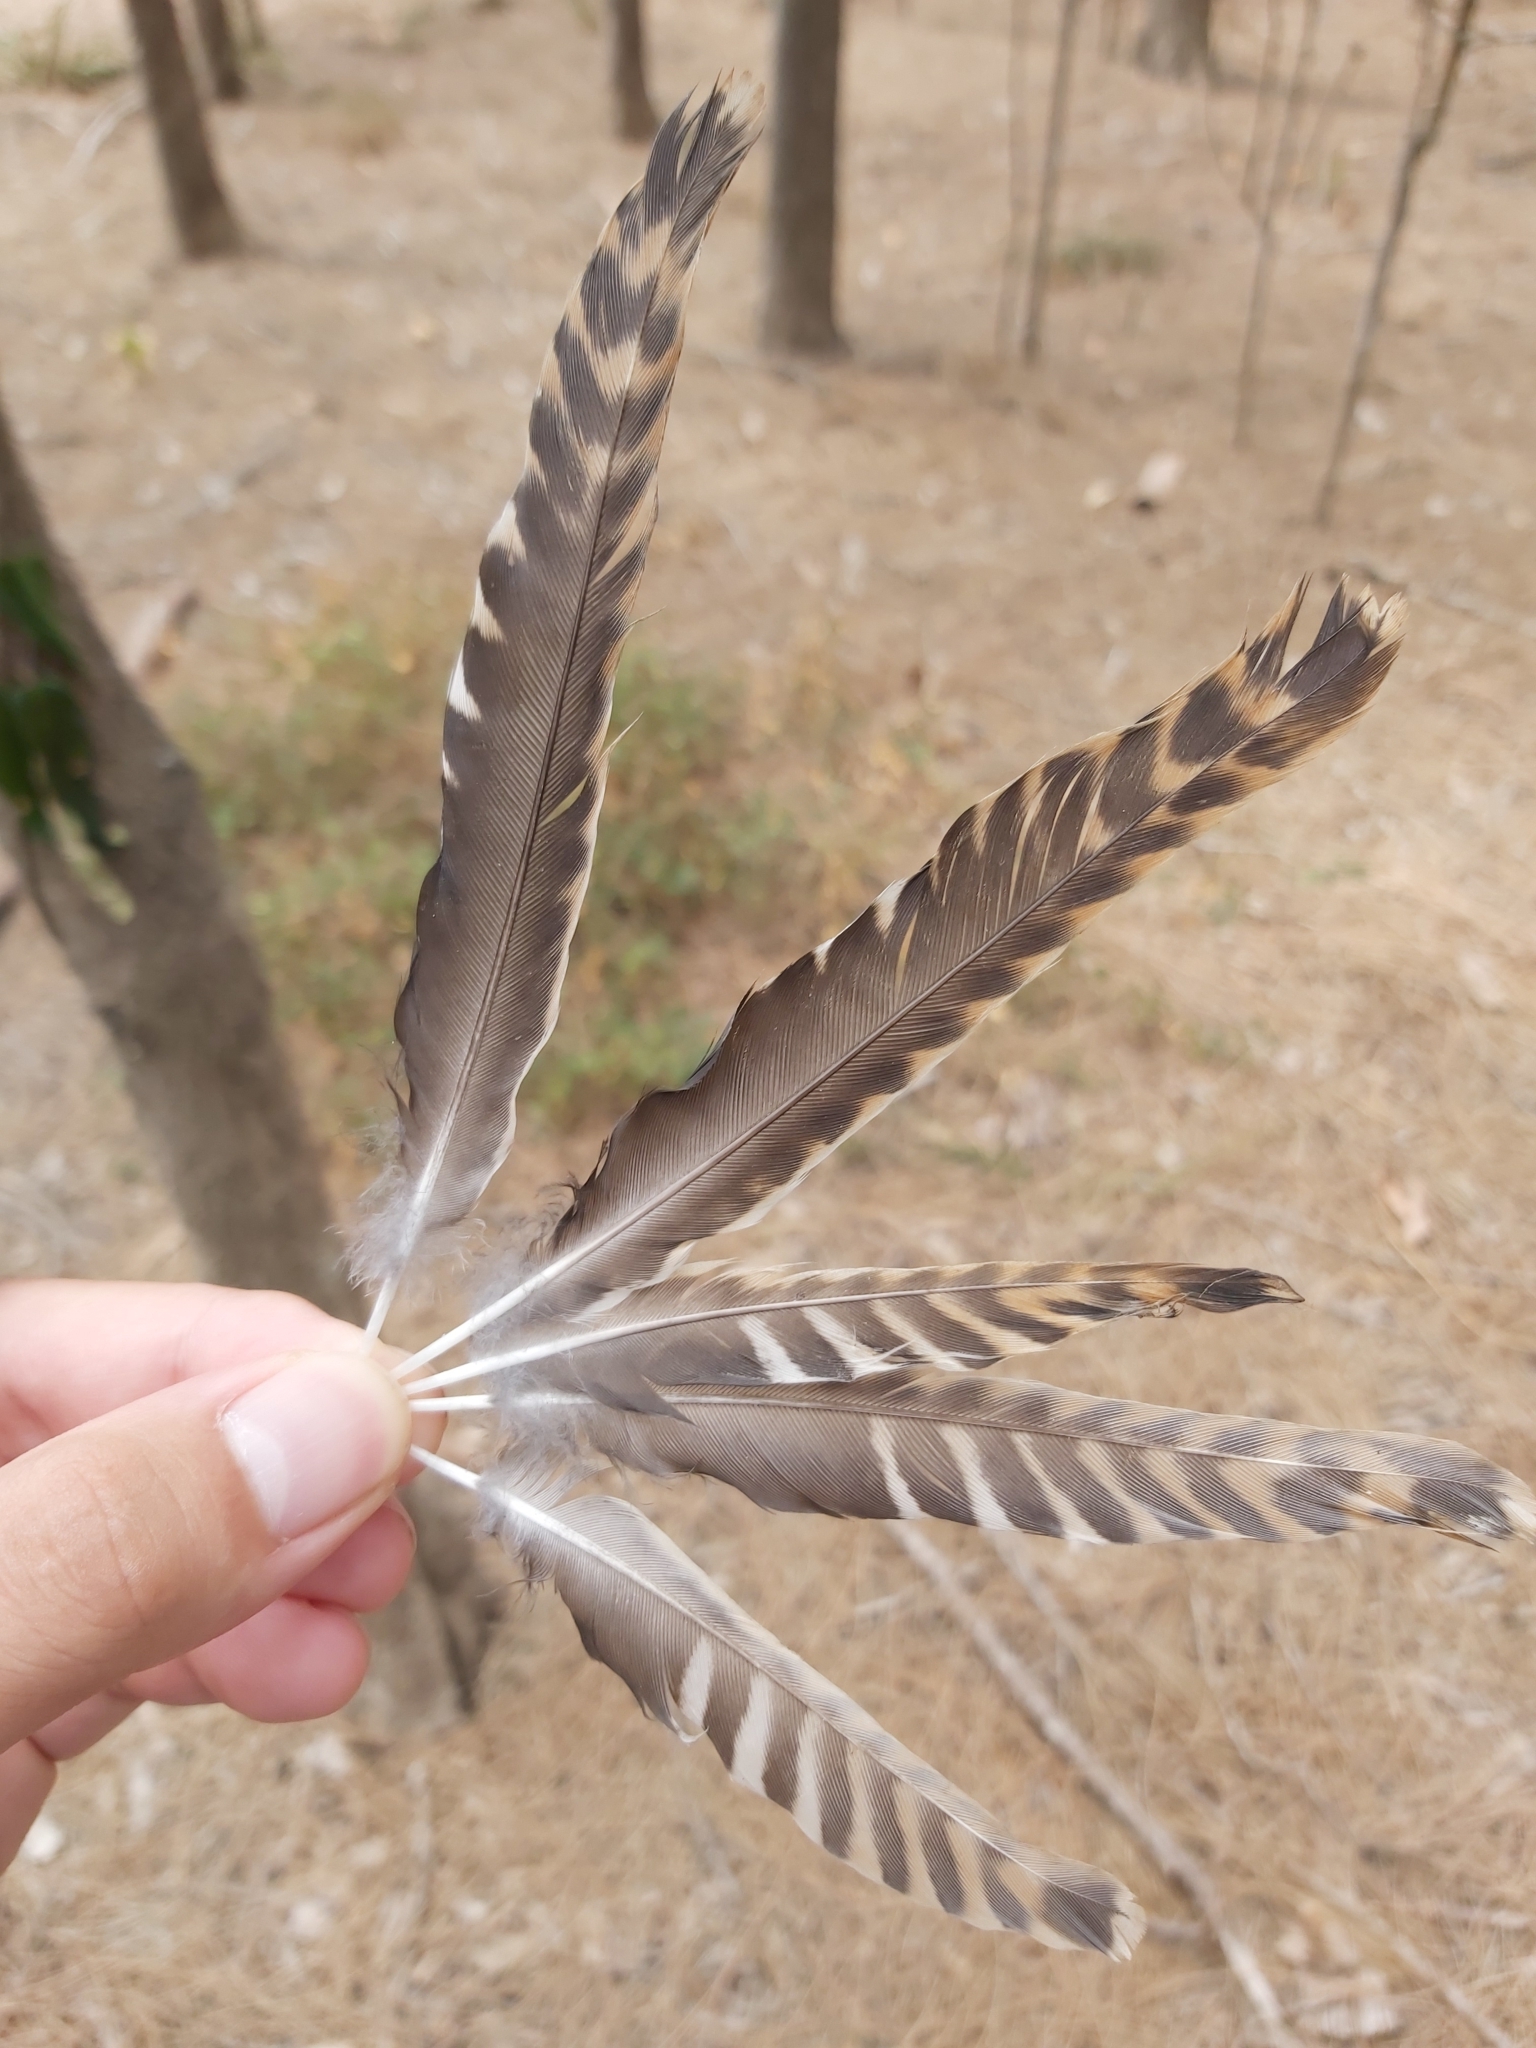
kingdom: Animalia
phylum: Chordata
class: Aves
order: Cuculiformes
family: Cuculidae
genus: Cacomantis
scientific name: Cacomantis flabelliformis
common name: Fan-tailed cuckoo
